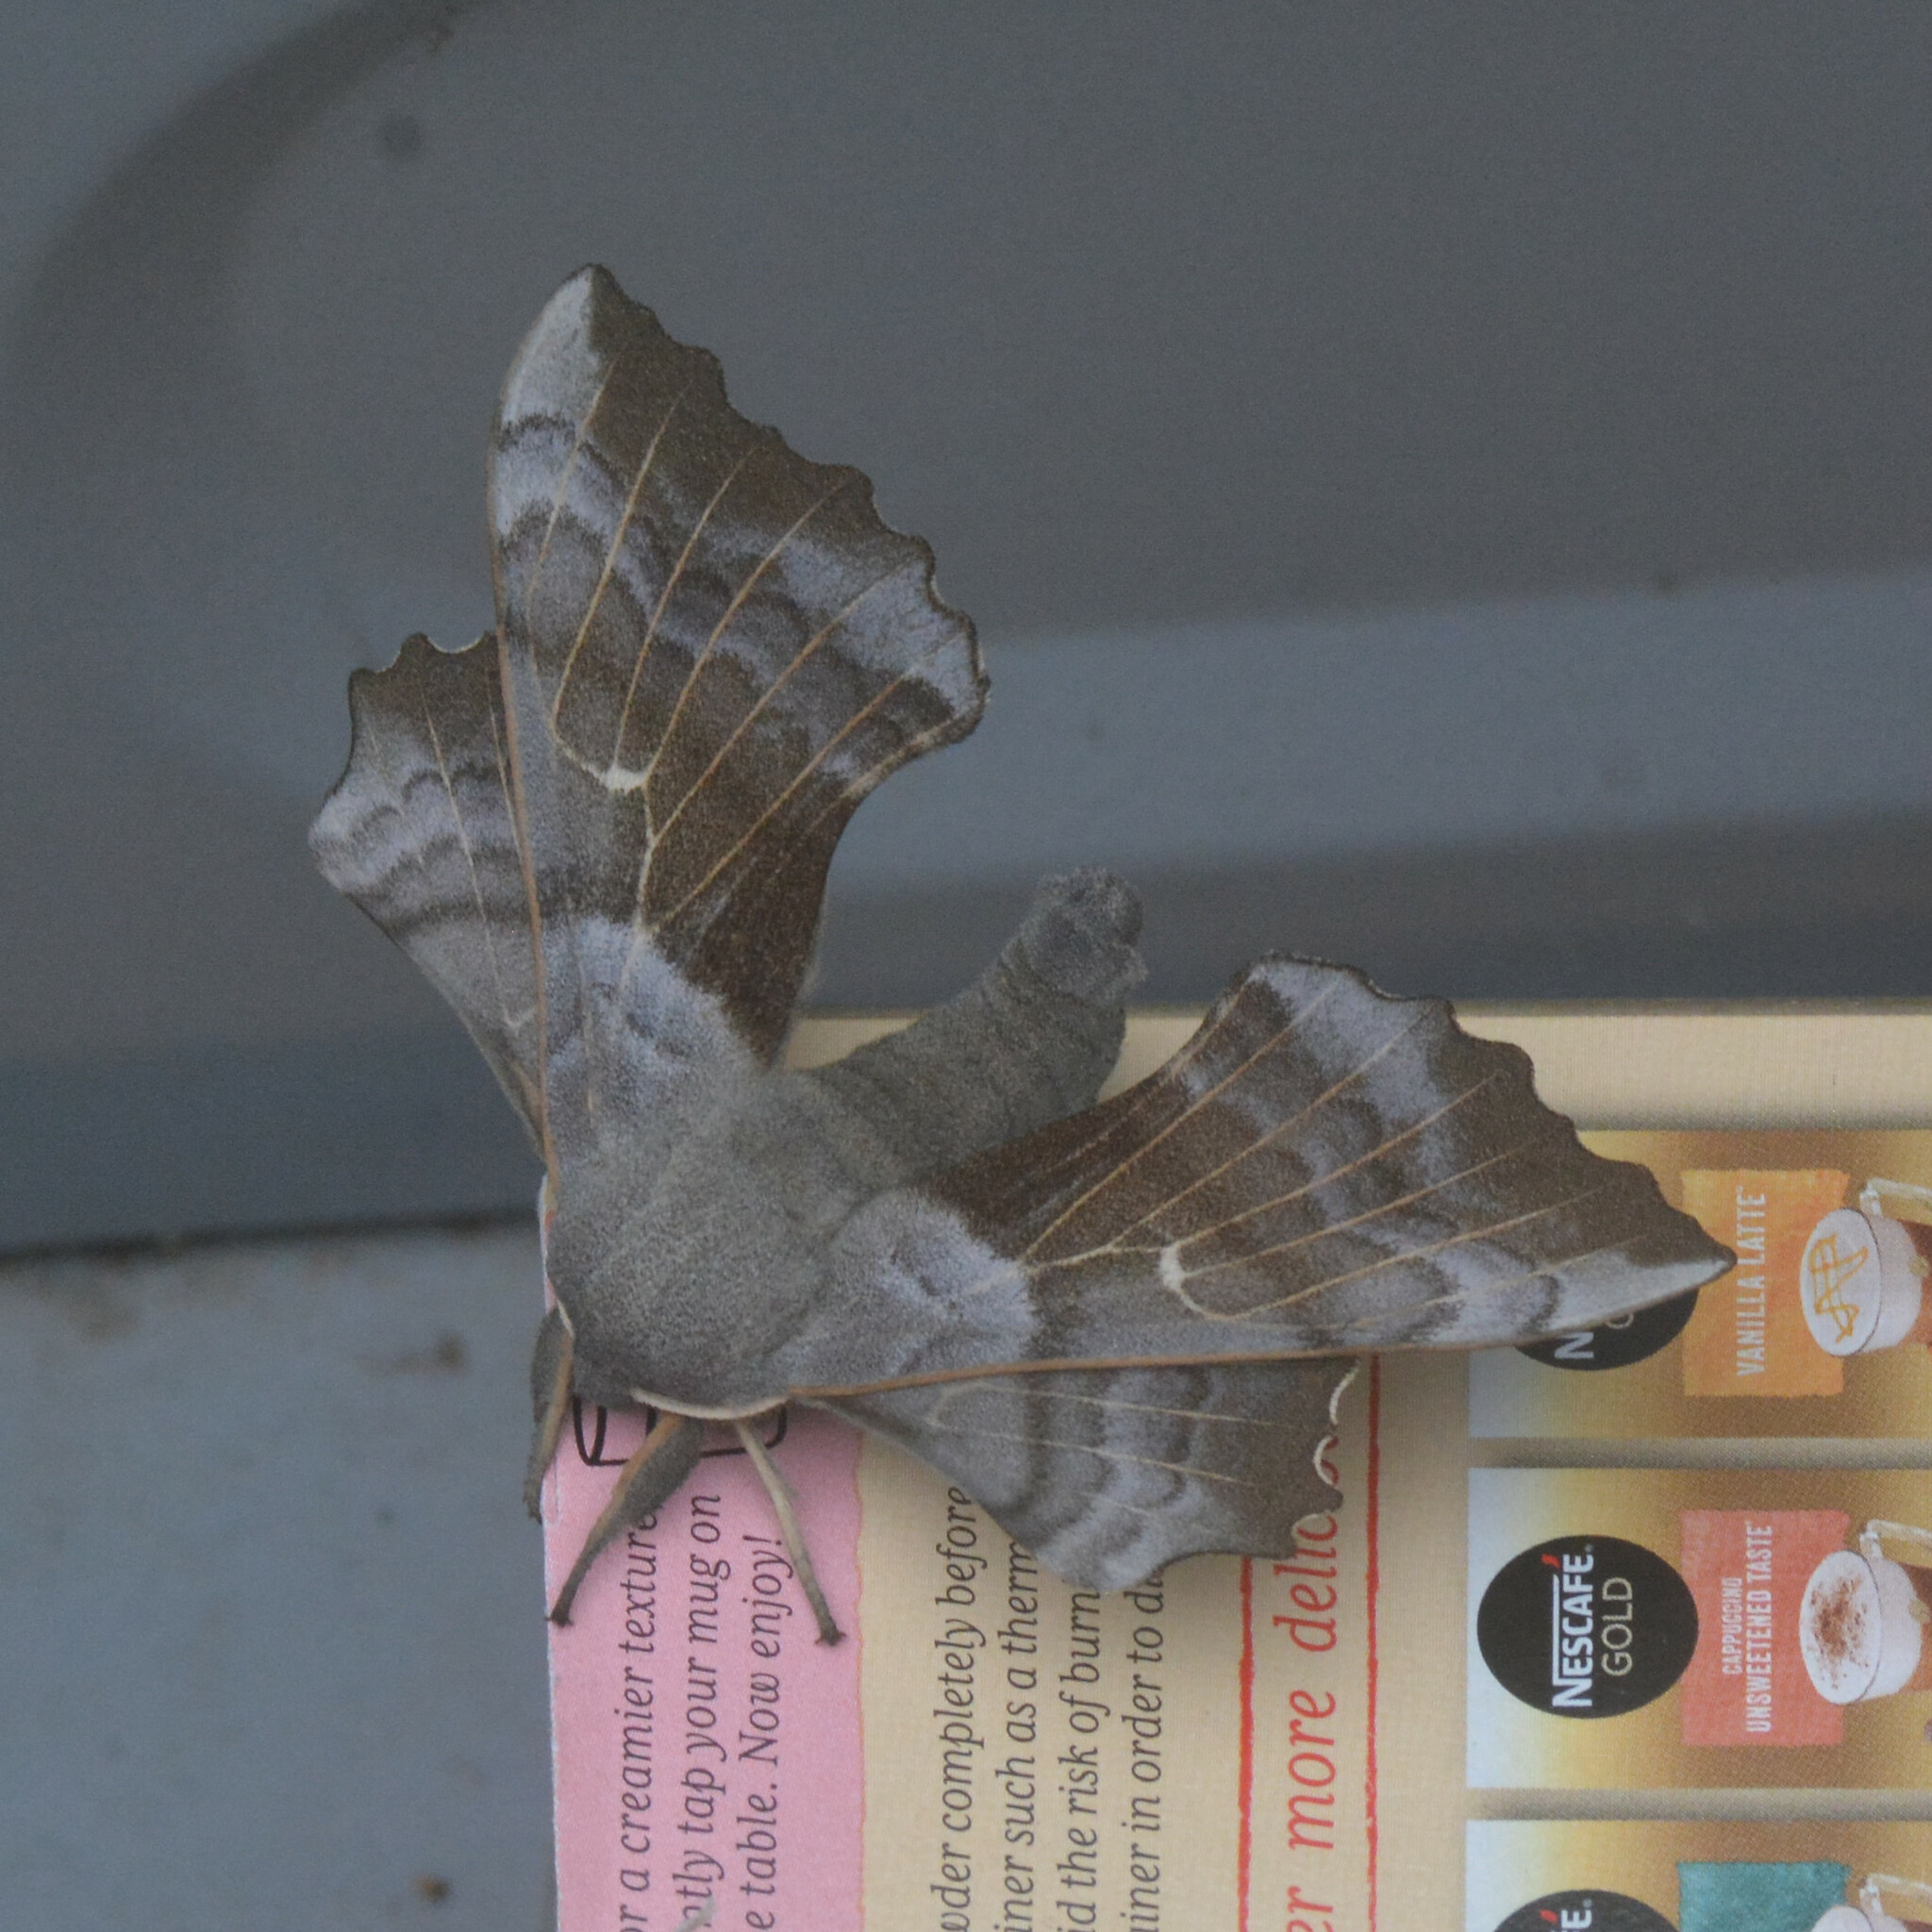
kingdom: Animalia
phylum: Arthropoda
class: Insecta
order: Lepidoptera
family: Sphingidae
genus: Laothoe
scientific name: Laothoe populi
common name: Poplar hawk-moth
